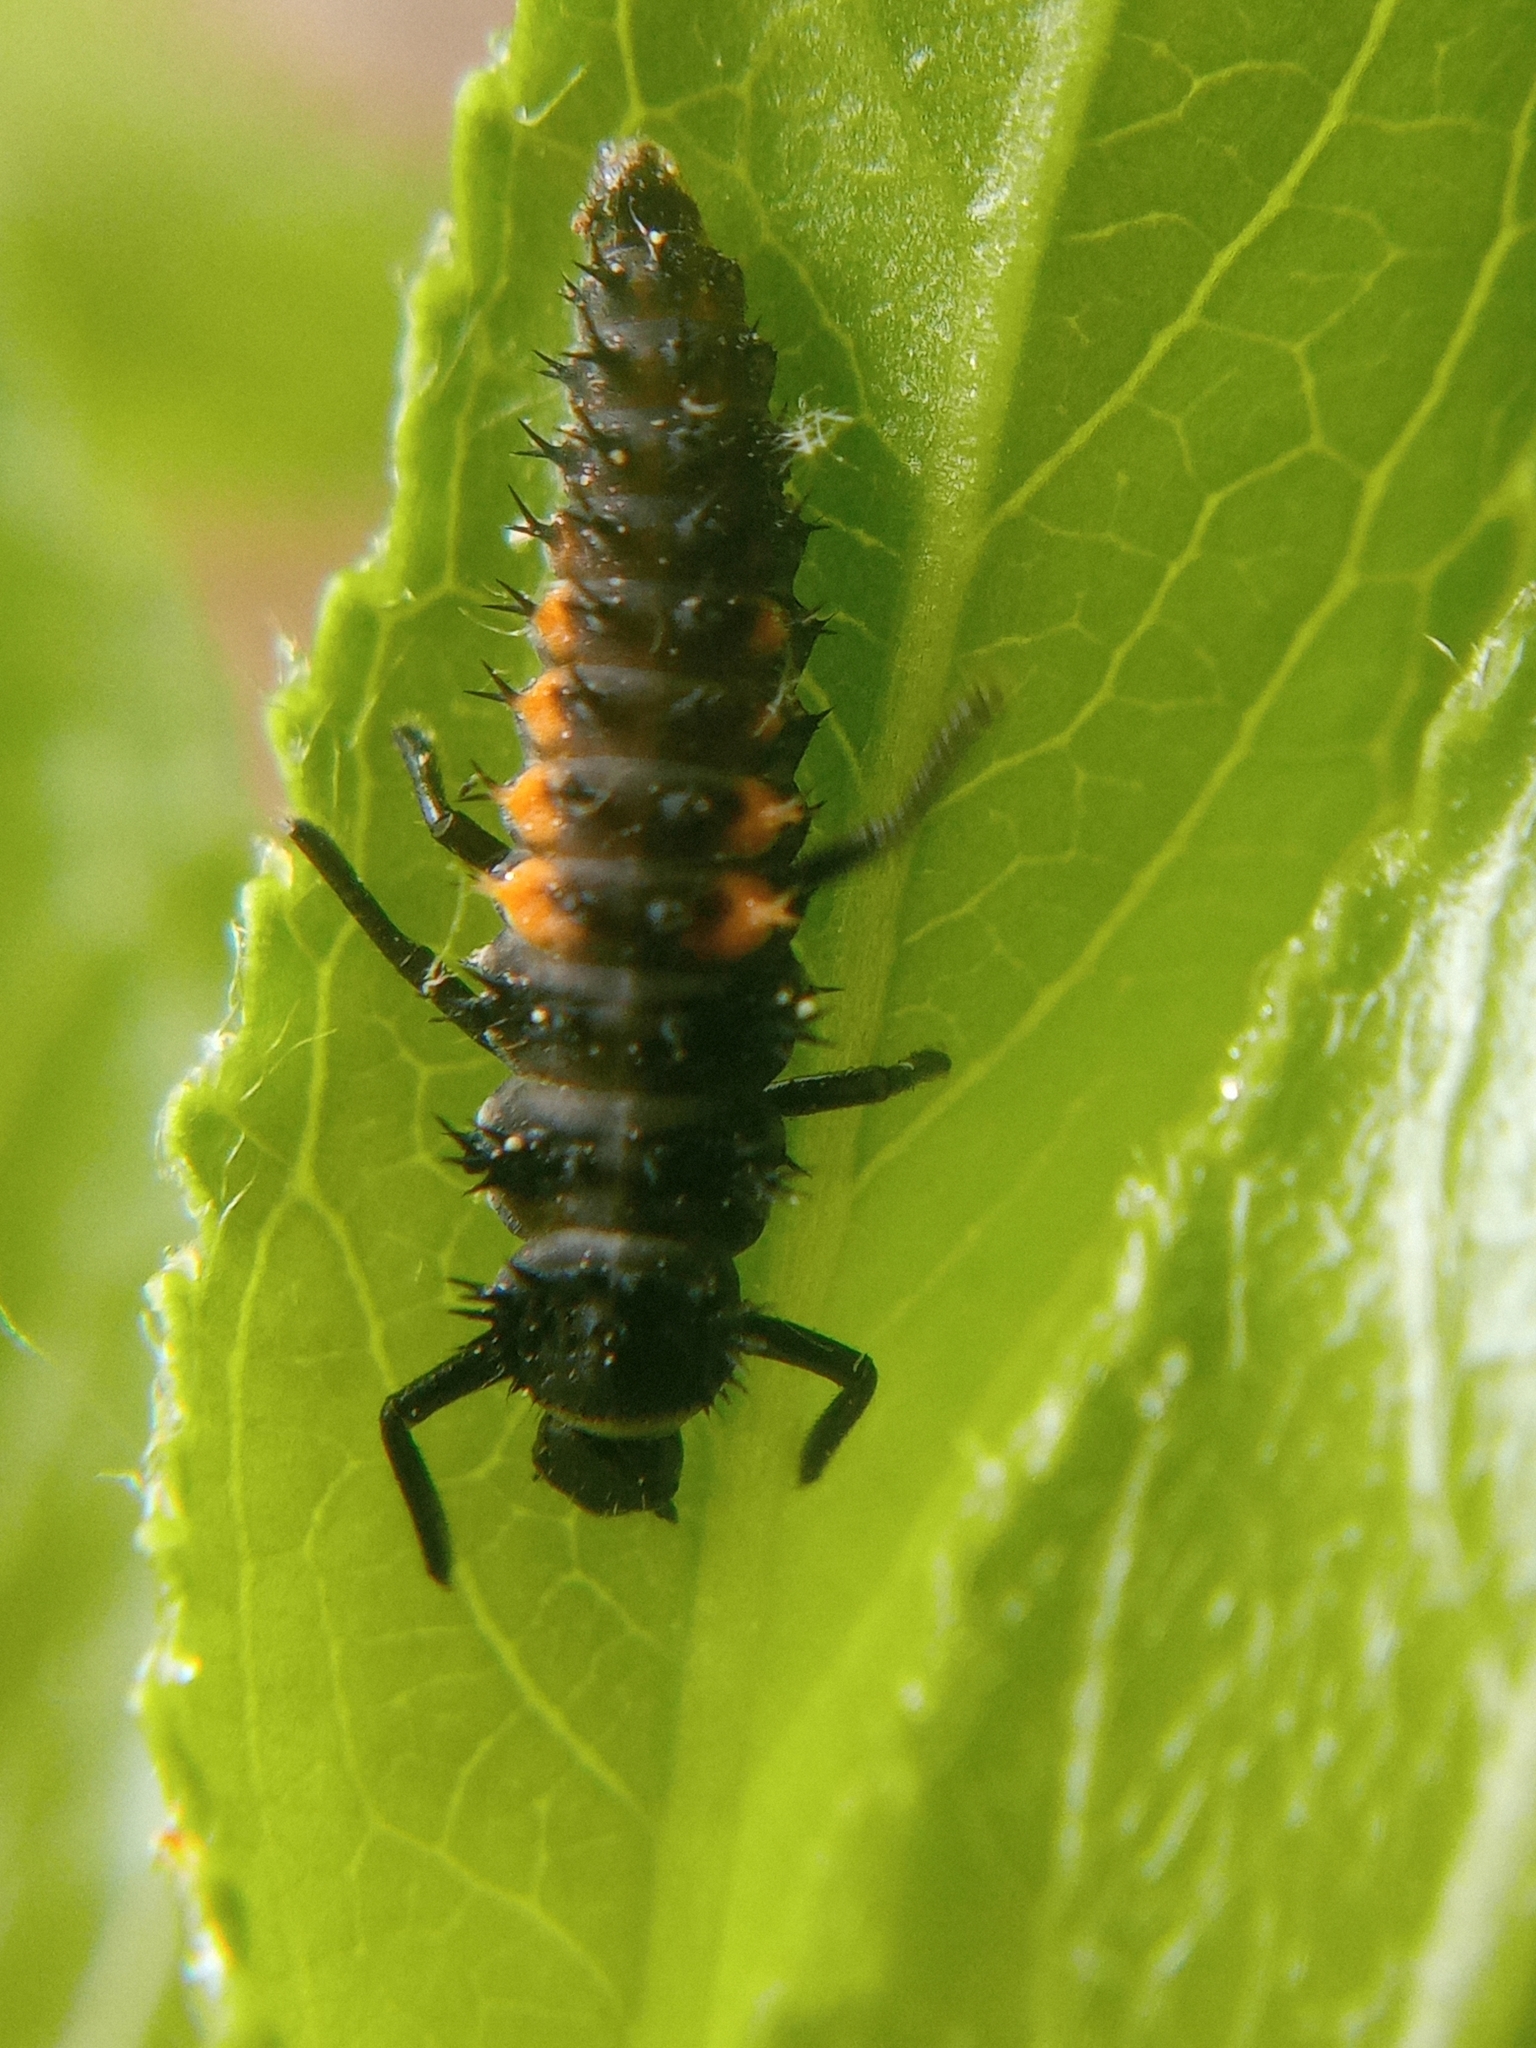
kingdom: Animalia
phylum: Arthropoda
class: Insecta
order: Coleoptera
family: Coccinellidae
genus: Harmonia
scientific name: Harmonia axyridis
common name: Harlequin ladybird
